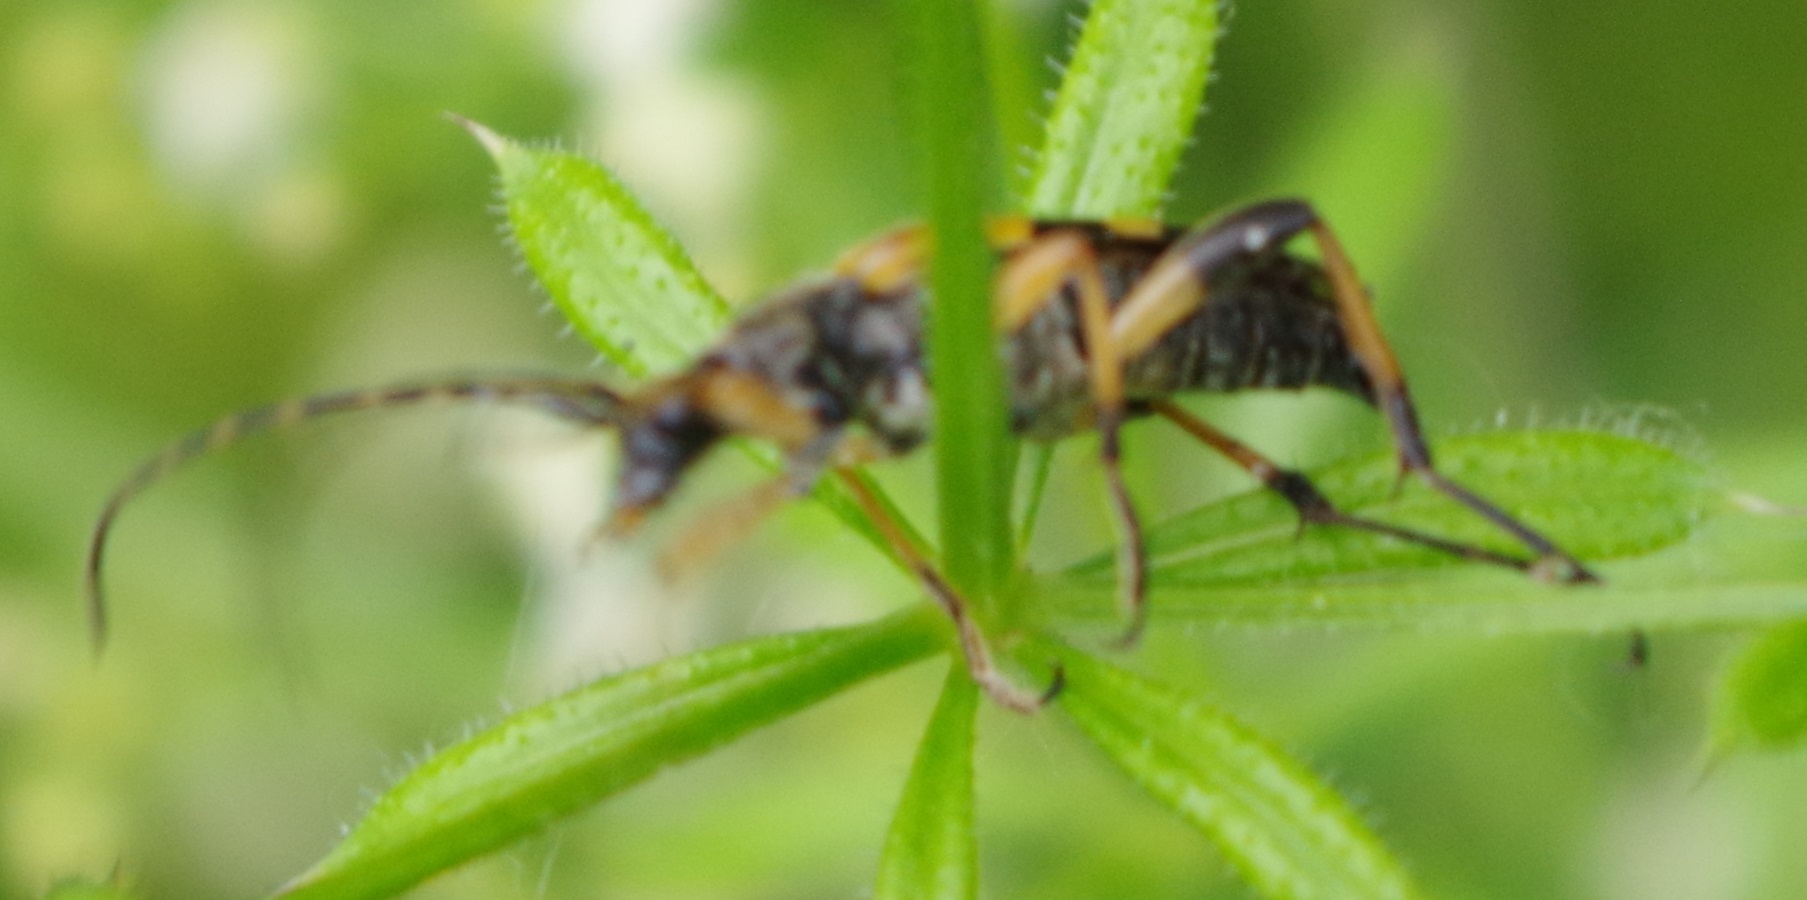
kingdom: Animalia
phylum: Arthropoda
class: Insecta
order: Coleoptera
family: Cerambycidae
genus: Rutpela
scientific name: Rutpela maculata
